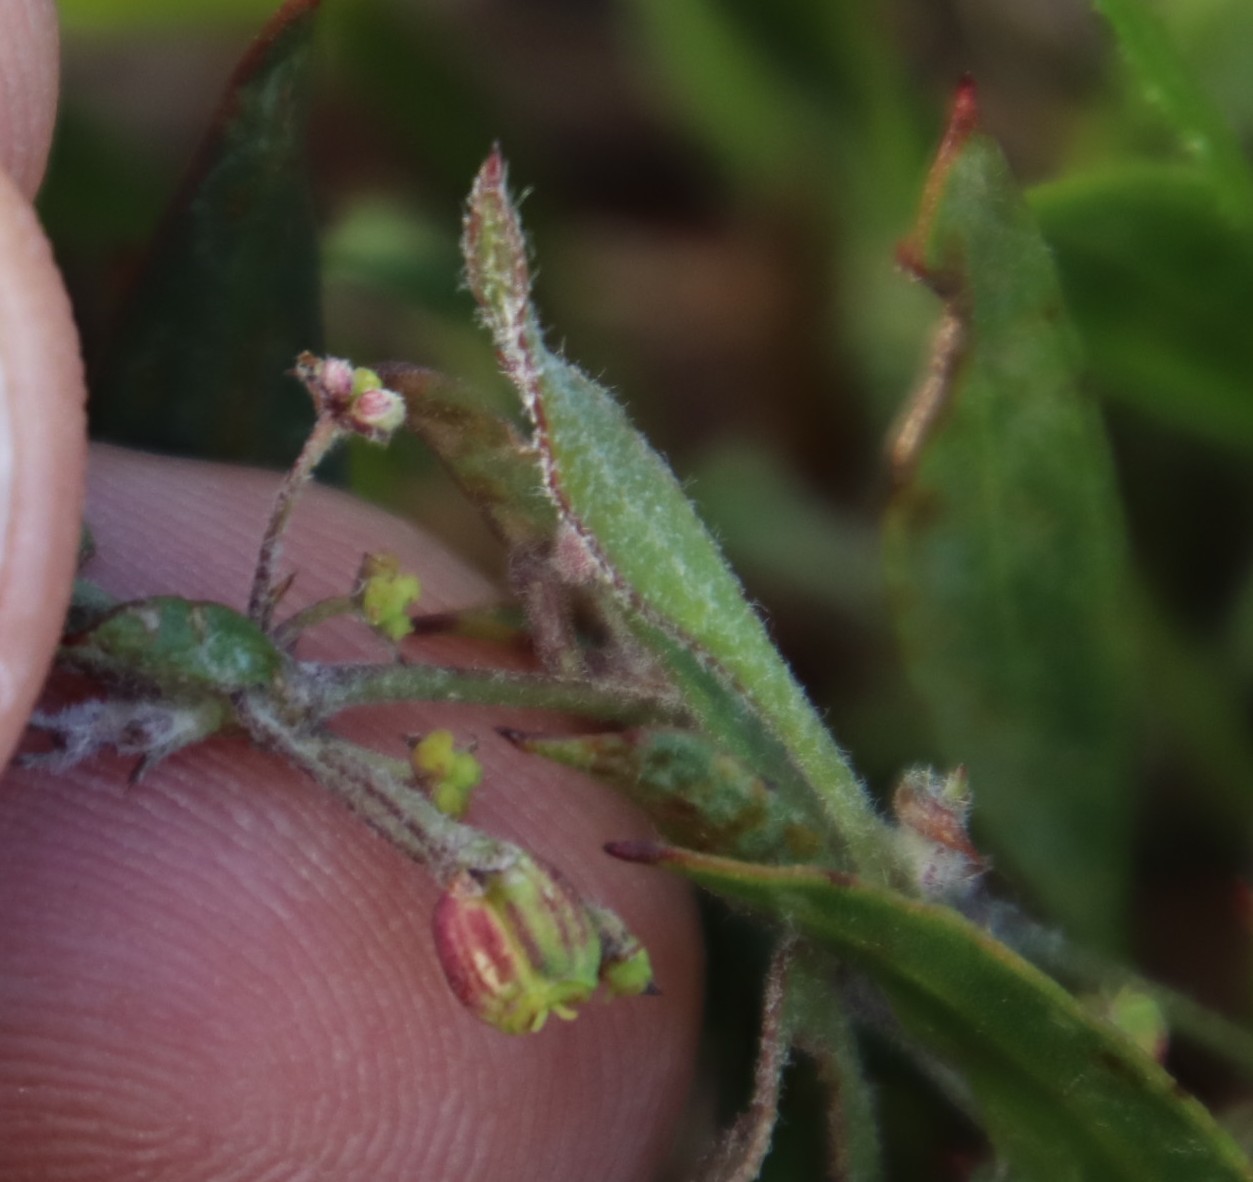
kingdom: Plantae
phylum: Tracheophyta
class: Magnoliopsida
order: Apiales
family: Apiaceae
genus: Centella
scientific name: Centella glabrata
